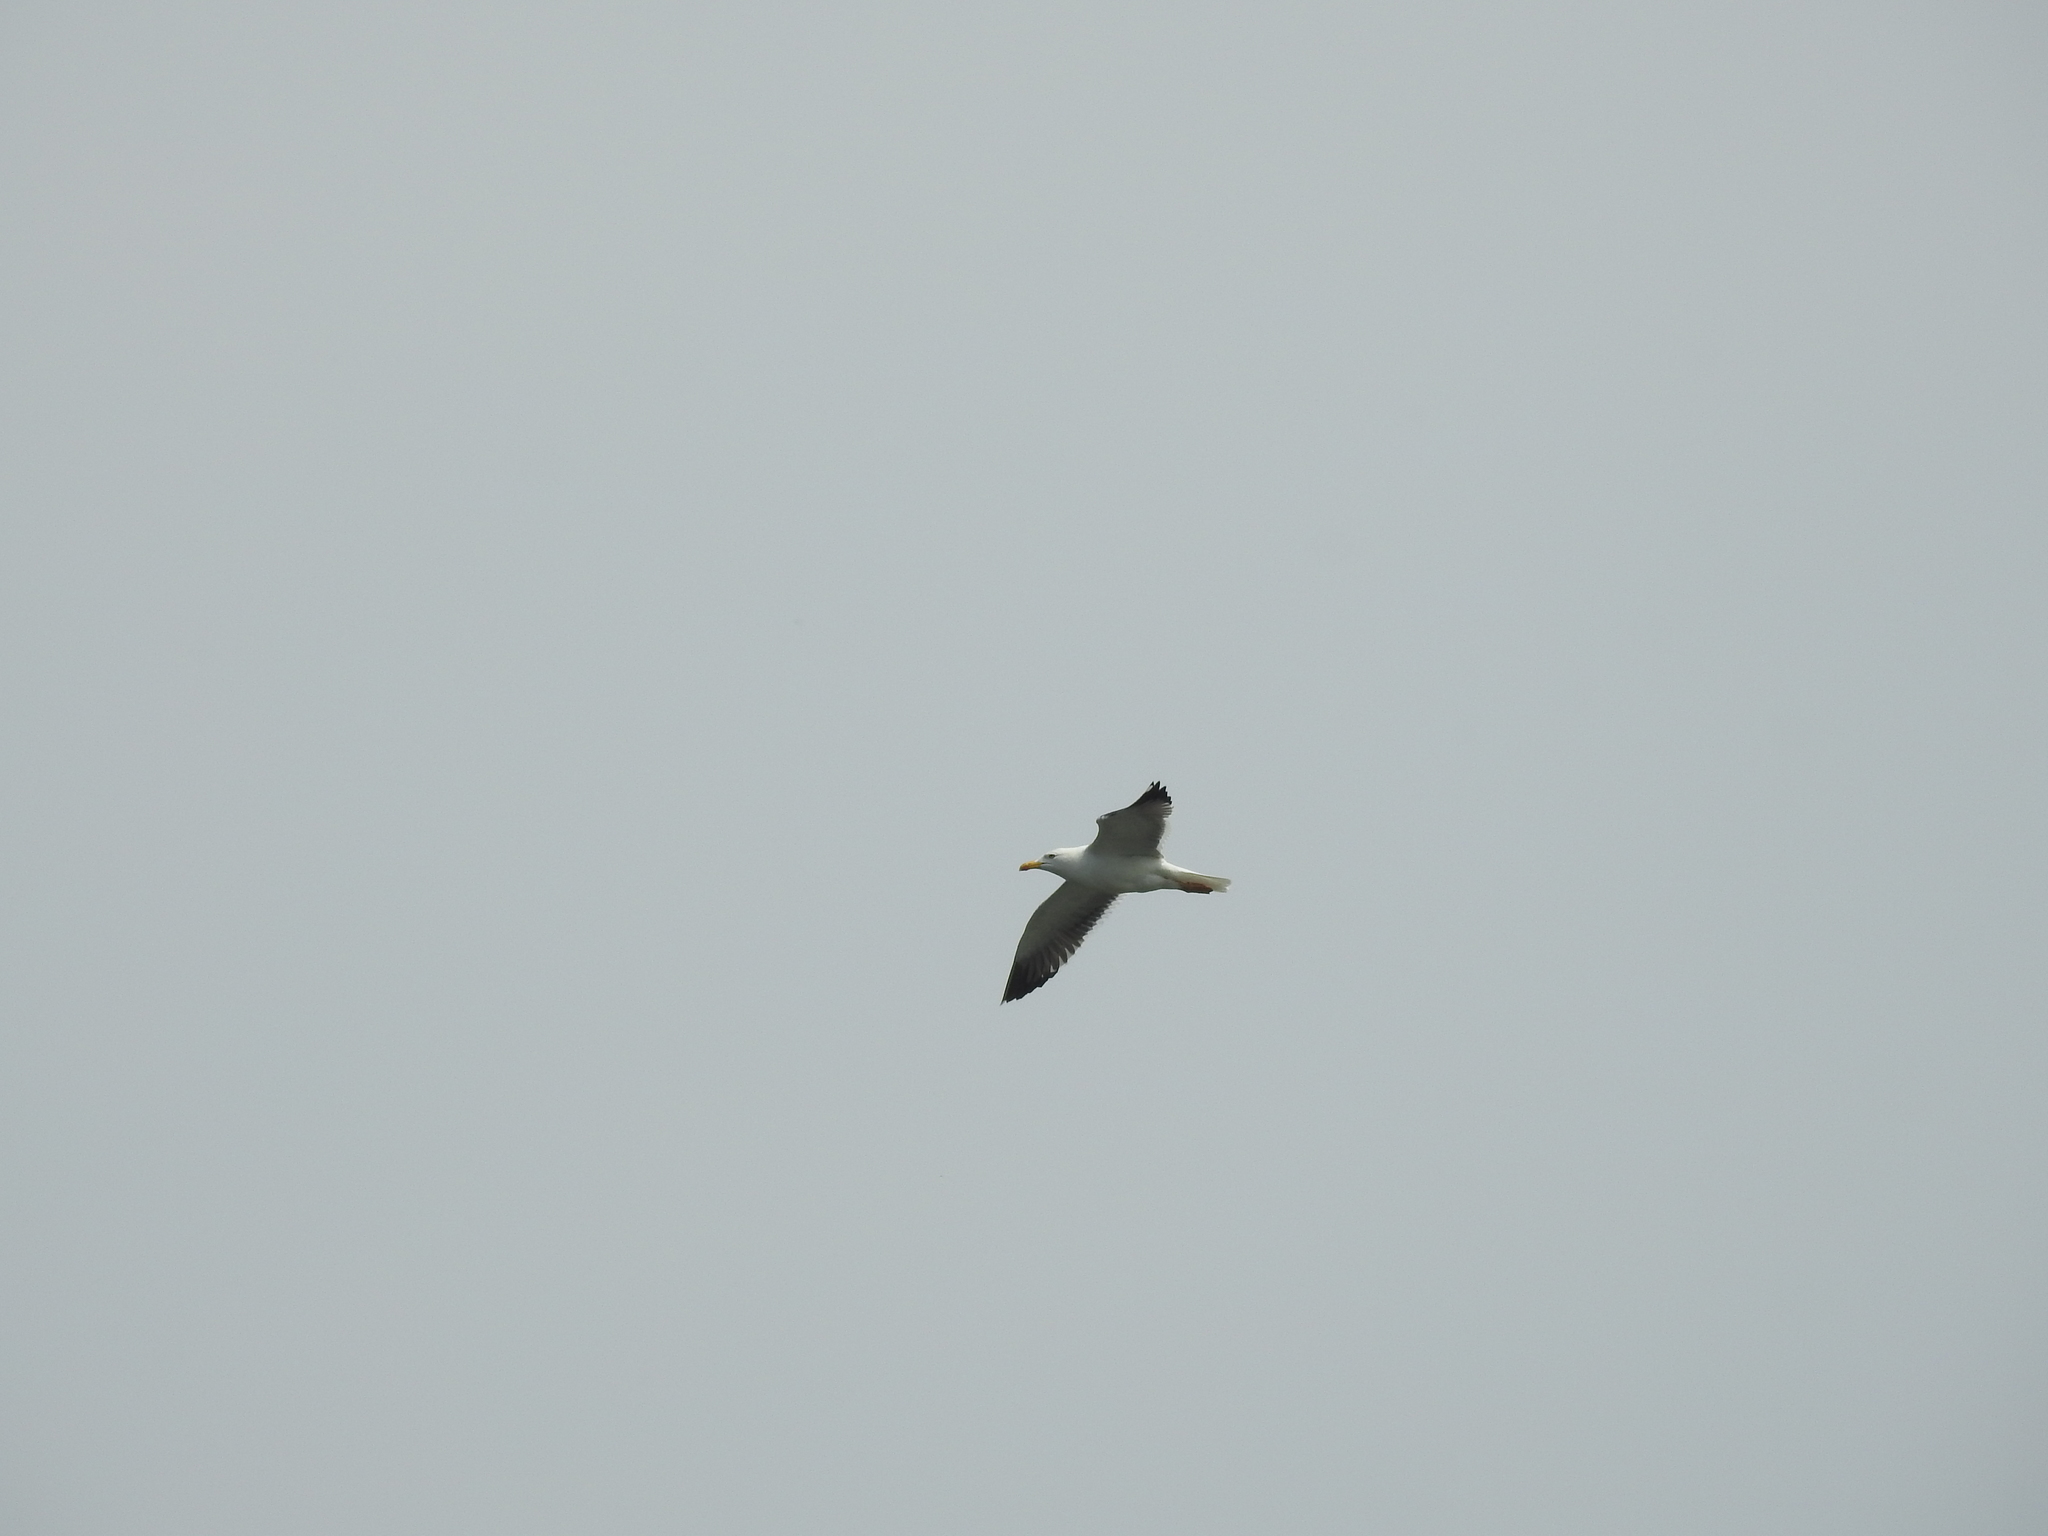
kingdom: Animalia
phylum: Chordata
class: Aves
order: Charadriiformes
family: Laridae
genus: Larus
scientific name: Larus fuscus
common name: Lesser black-backed gull
